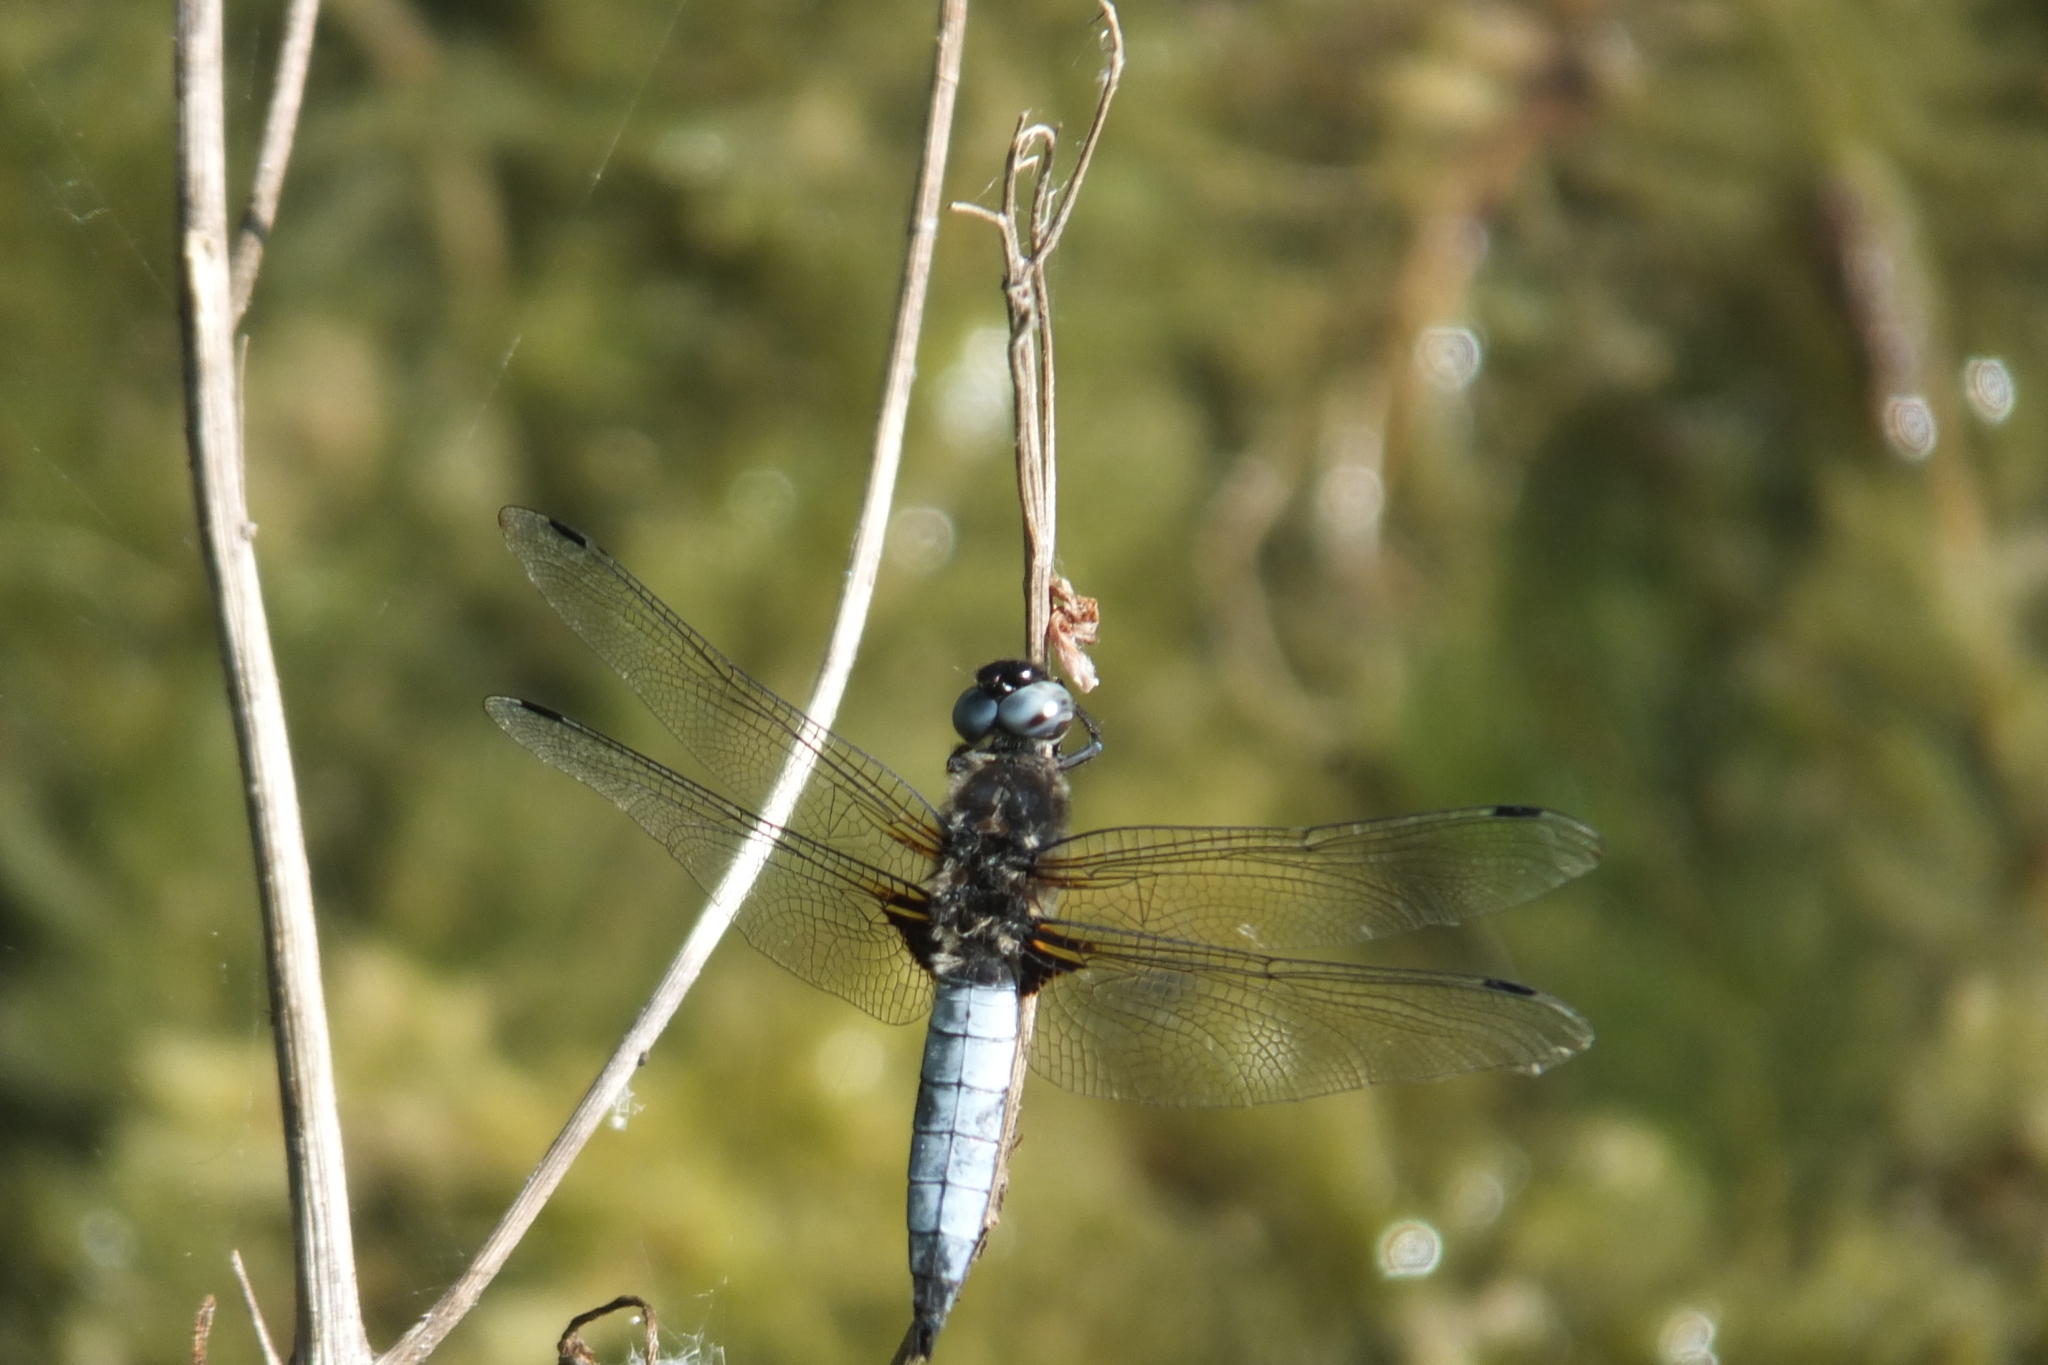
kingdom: Animalia
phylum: Arthropoda
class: Insecta
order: Odonata
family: Libellulidae
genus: Libellula
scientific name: Libellula fulva
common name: Blue chaser
